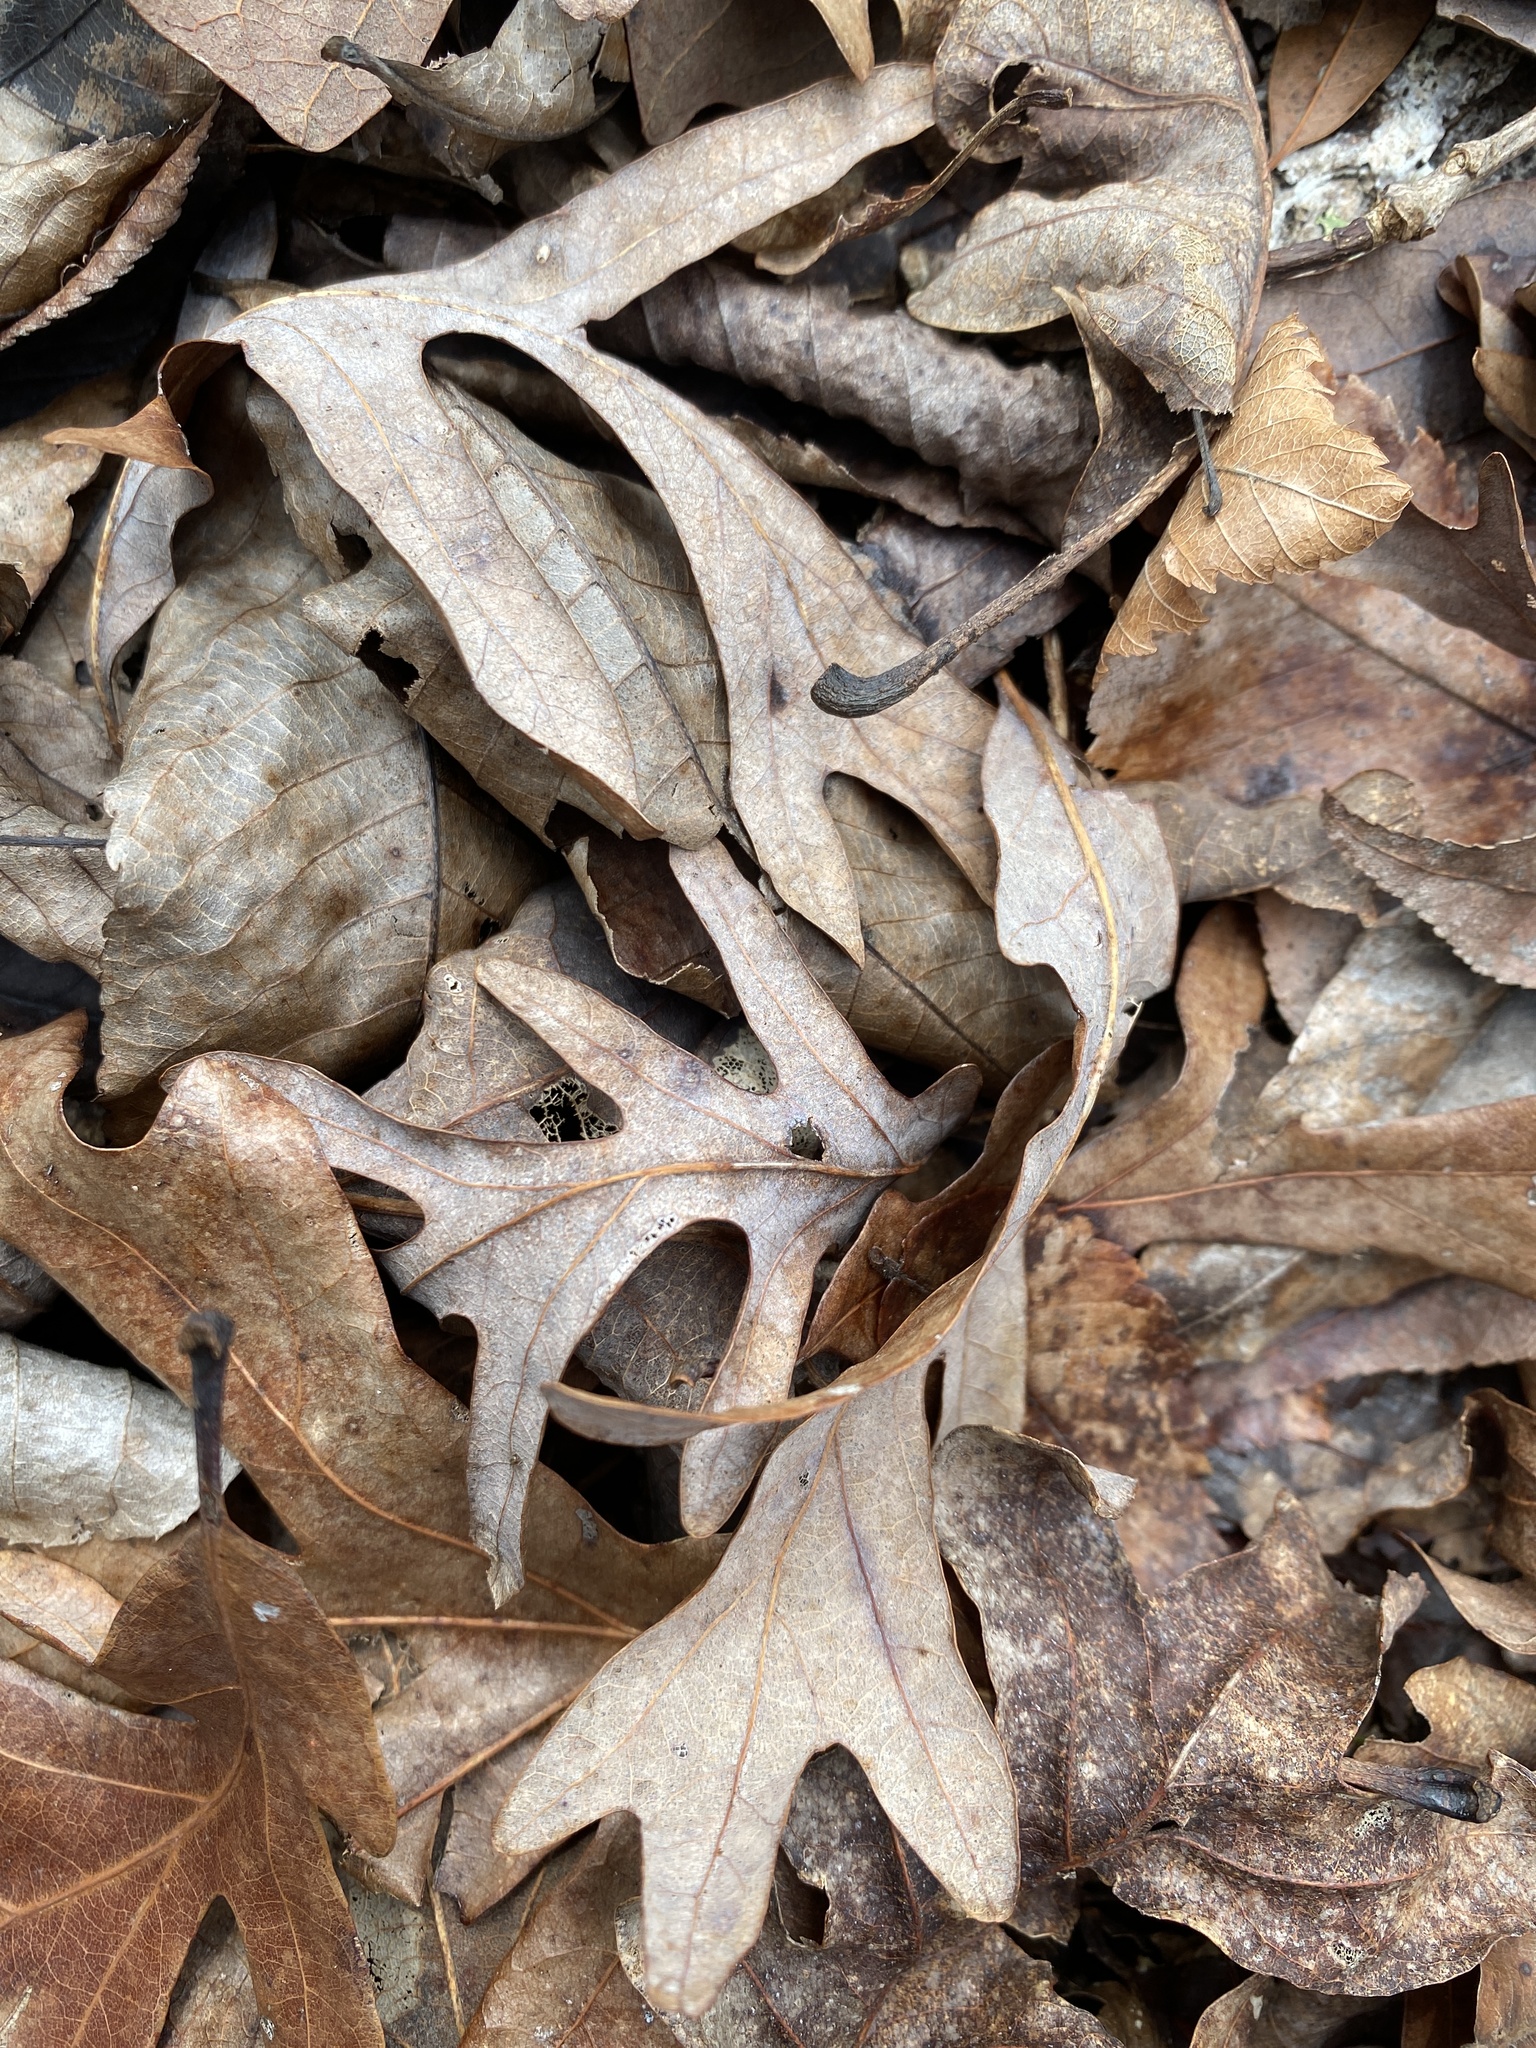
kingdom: Plantae
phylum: Tracheophyta
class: Magnoliopsida
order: Fagales
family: Fagaceae
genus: Quercus
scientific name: Quercus alba
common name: White oak
